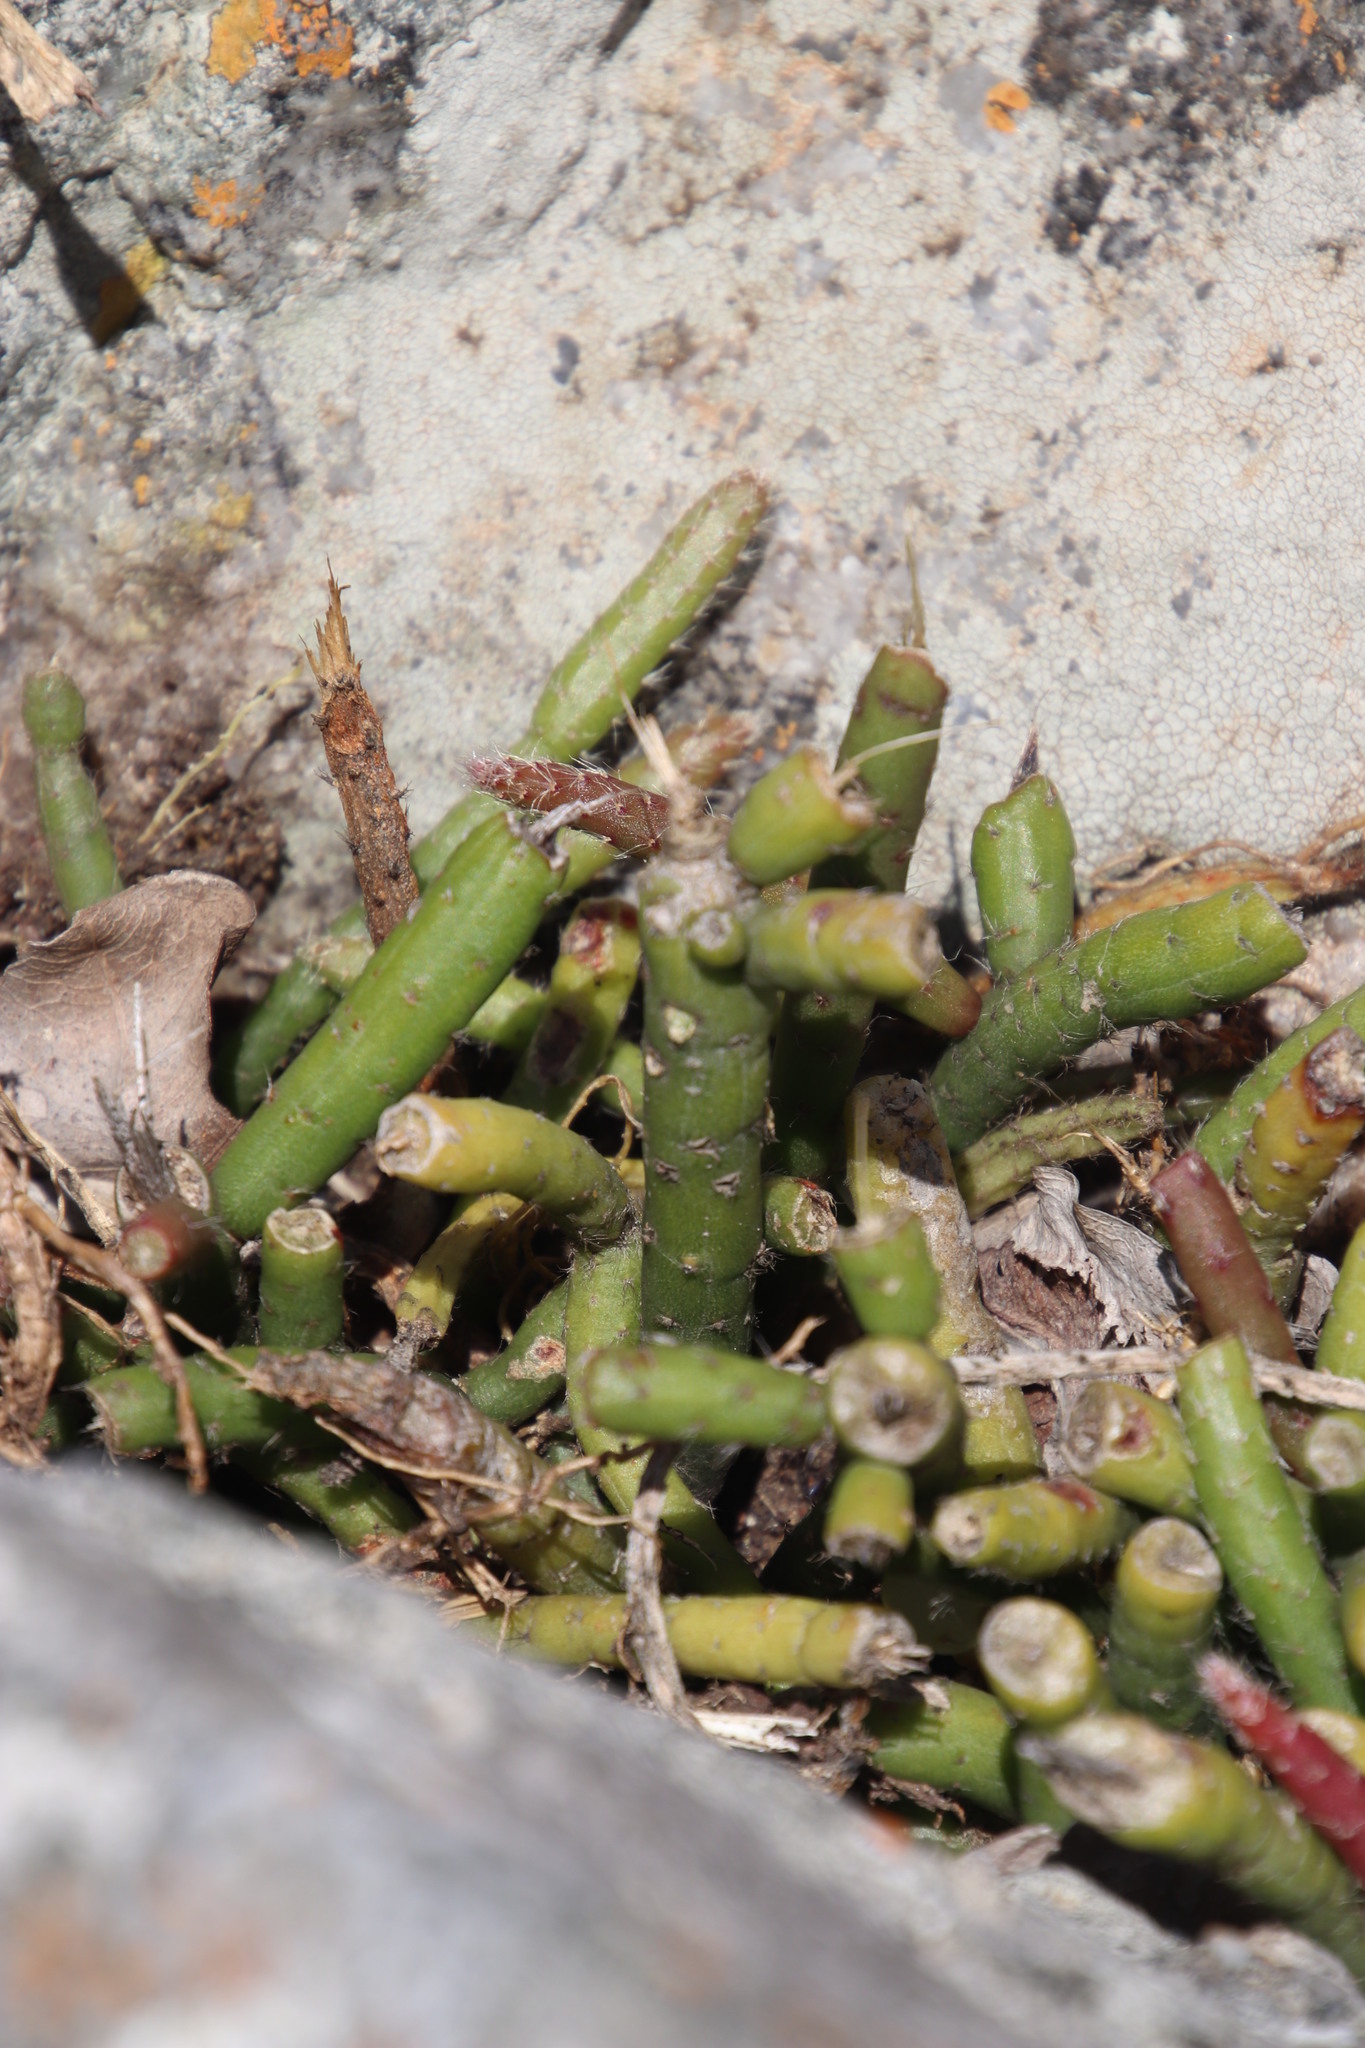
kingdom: Plantae
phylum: Tracheophyta
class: Magnoliopsida
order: Caryophyllales
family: Cactaceae
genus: Rhipsalis
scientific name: Rhipsalis baccifera
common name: Mistletoe cactus
